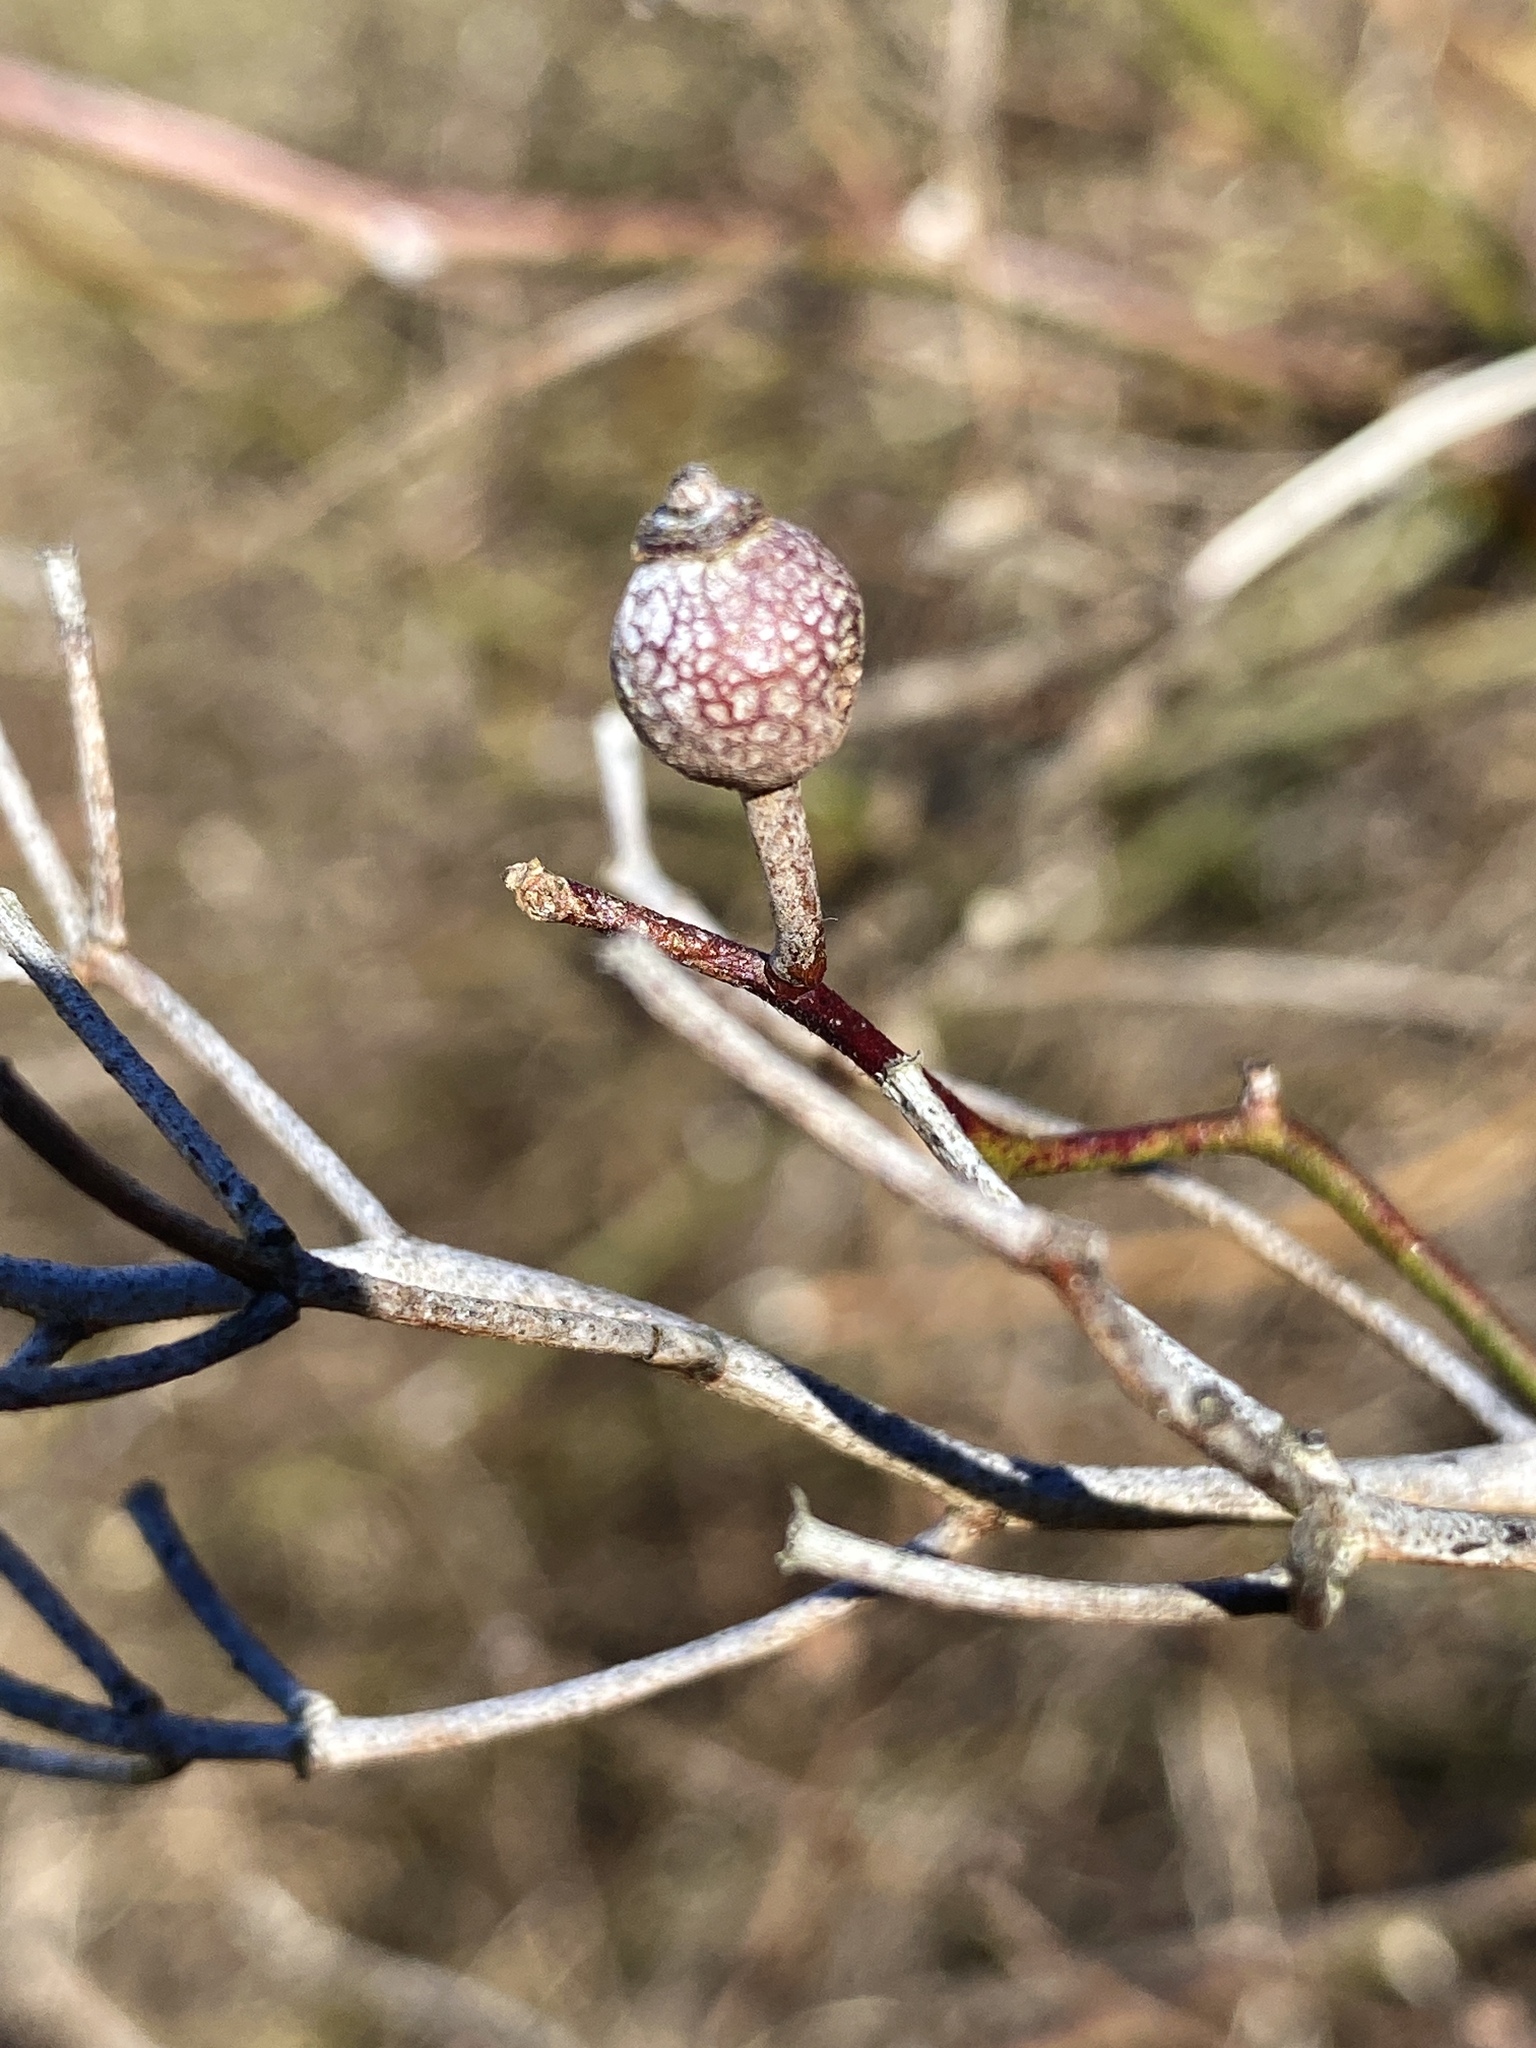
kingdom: Plantae
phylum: Tracheophyta
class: Magnoliopsida
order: Rosales
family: Rosaceae
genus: Rosa
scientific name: Rosa multiflora
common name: Multiflora rose
